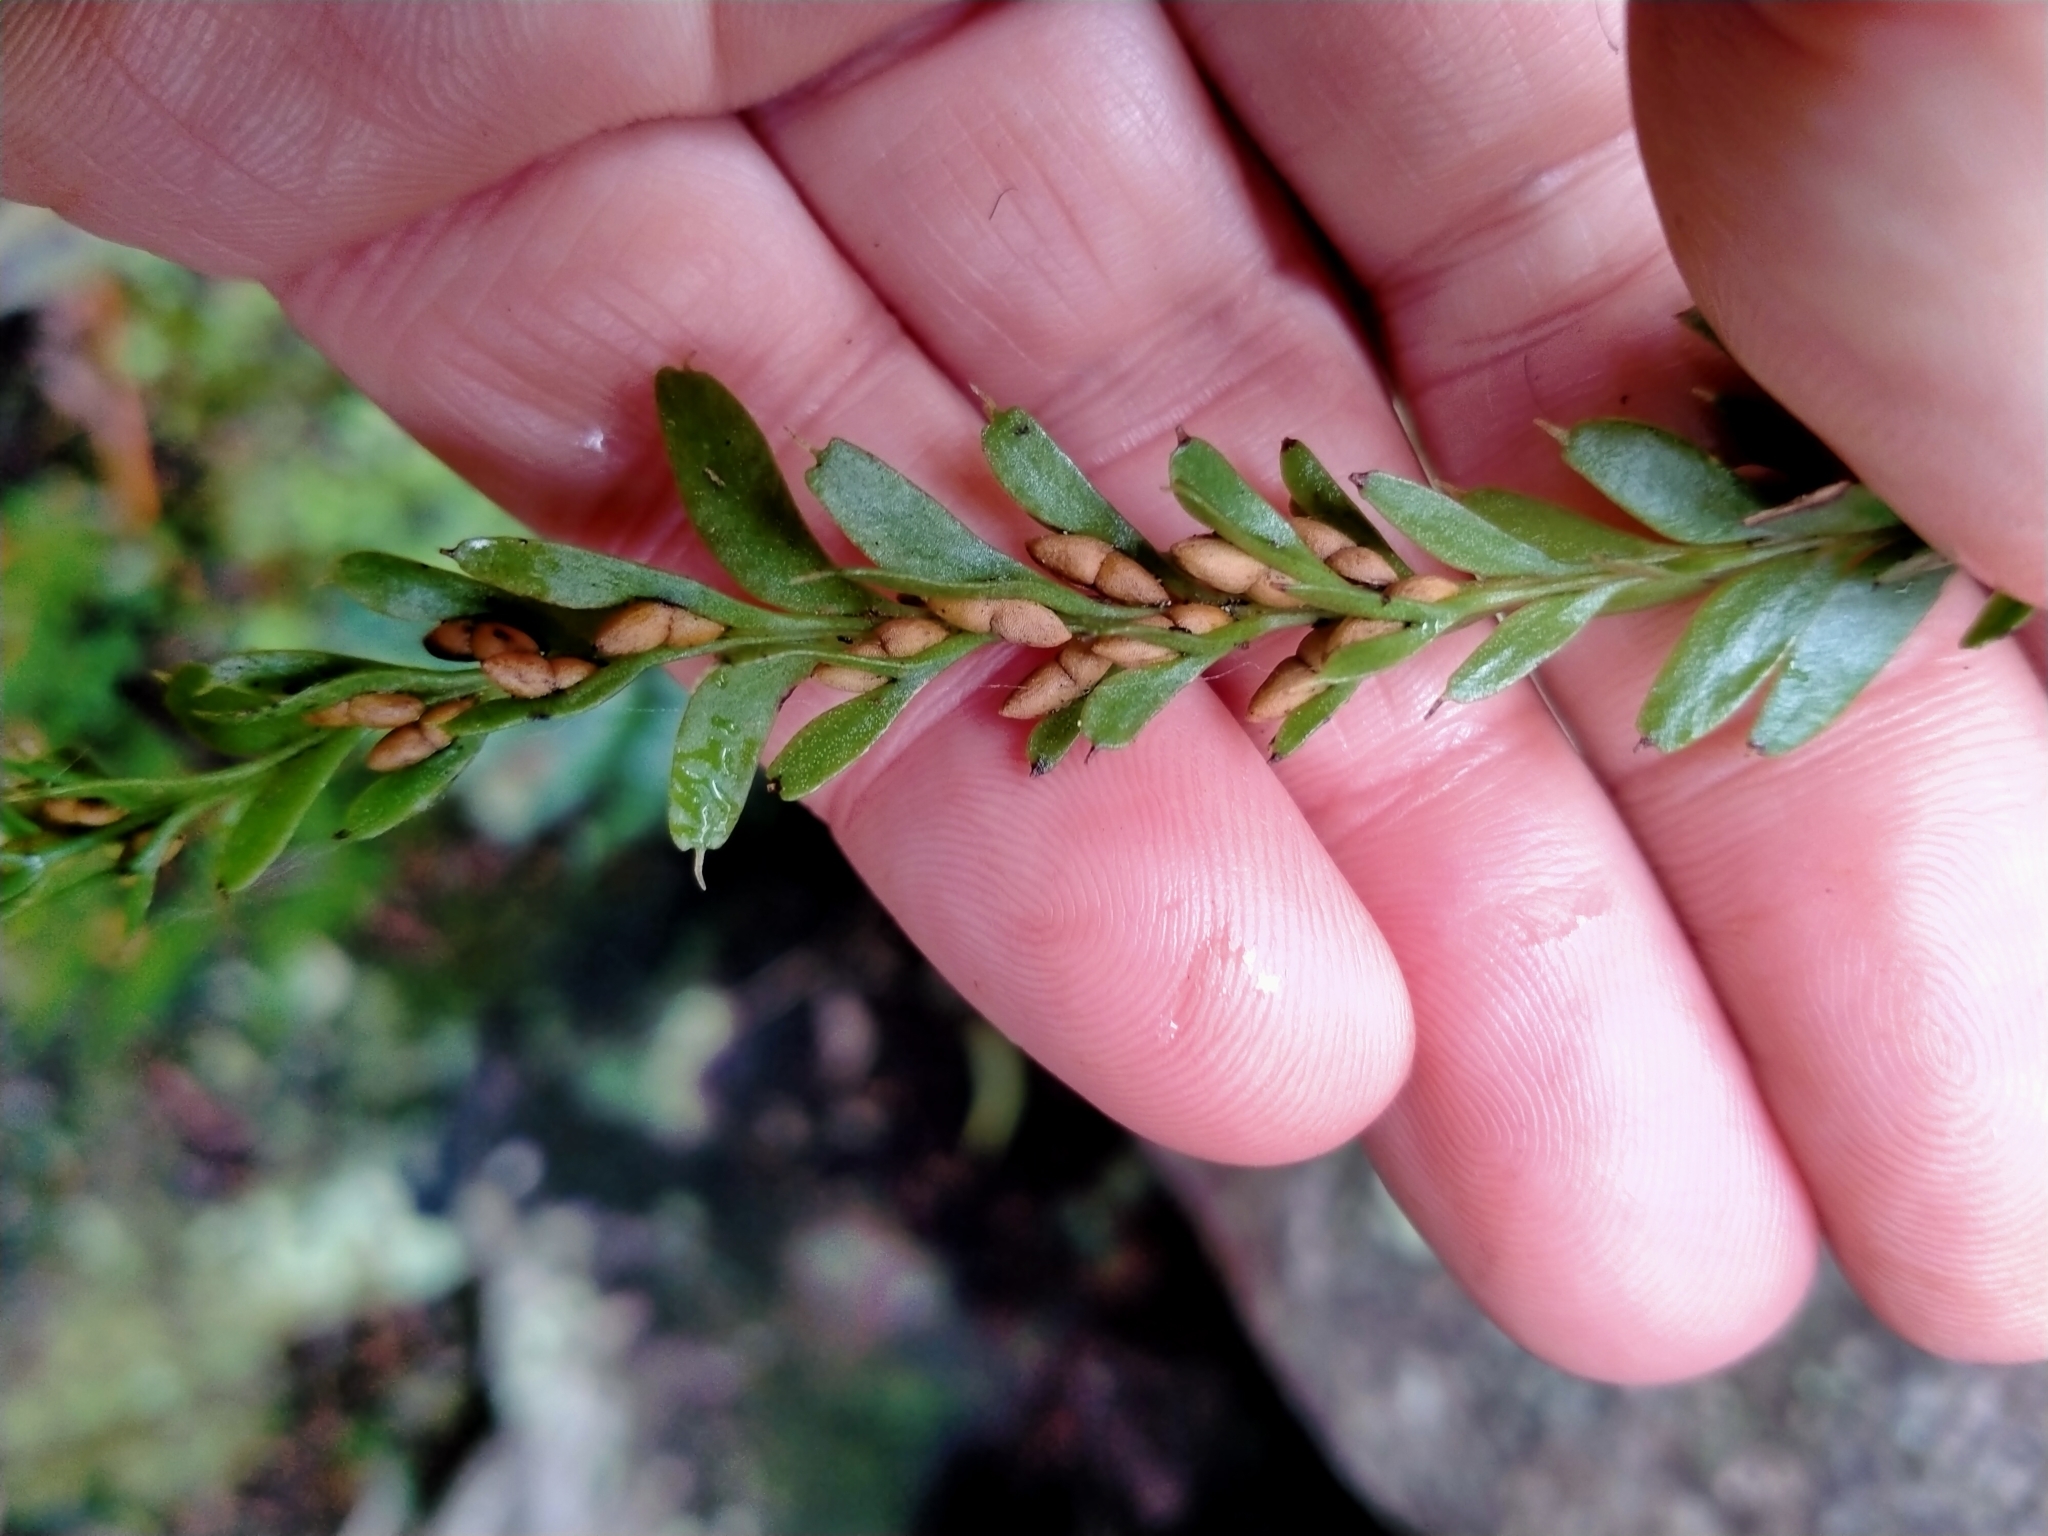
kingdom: Plantae
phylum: Tracheophyta
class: Polypodiopsida
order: Psilotales
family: Psilotaceae
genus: Tmesipteris
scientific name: Tmesipteris tannensis
